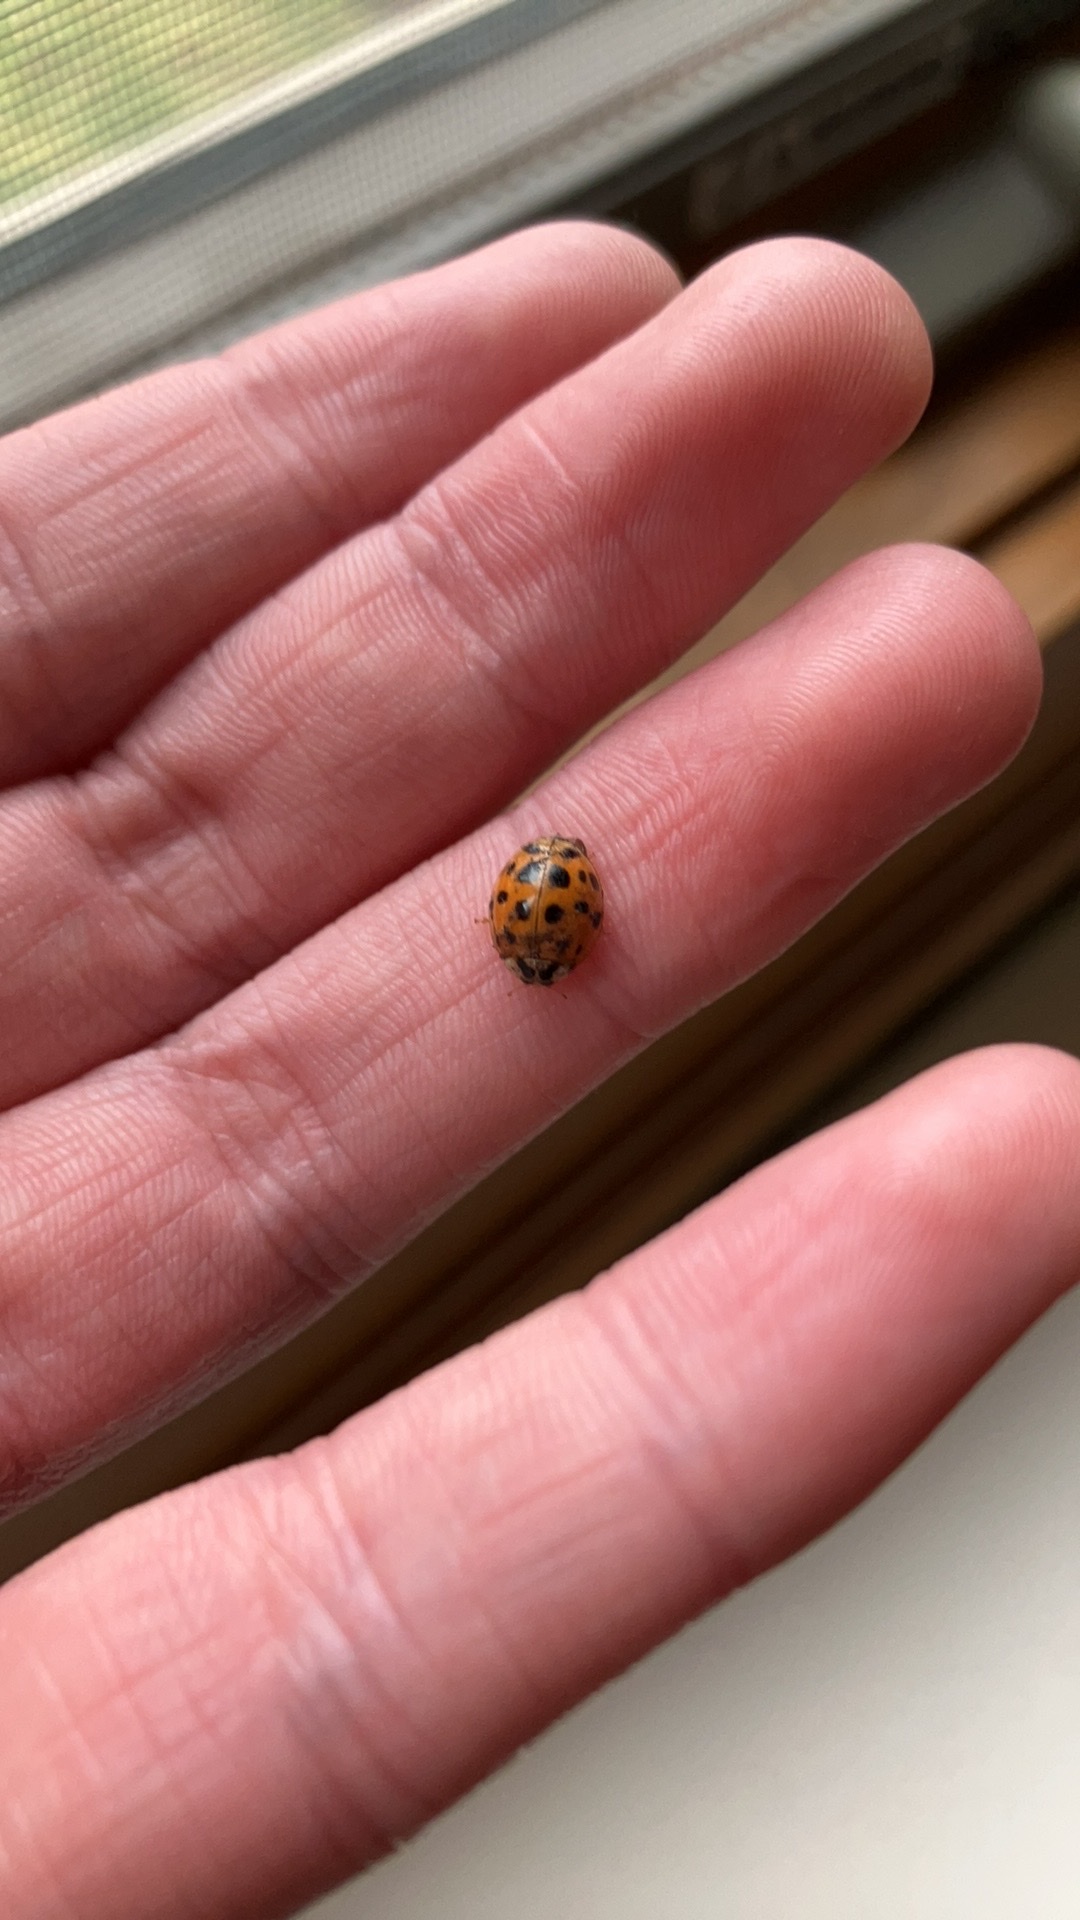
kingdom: Animalia
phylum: Arthropoda
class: Insecta
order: Coleoptera
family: Coccinellidae
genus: Harmonia
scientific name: Harmonia axyridis
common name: Harlequin ladybird
